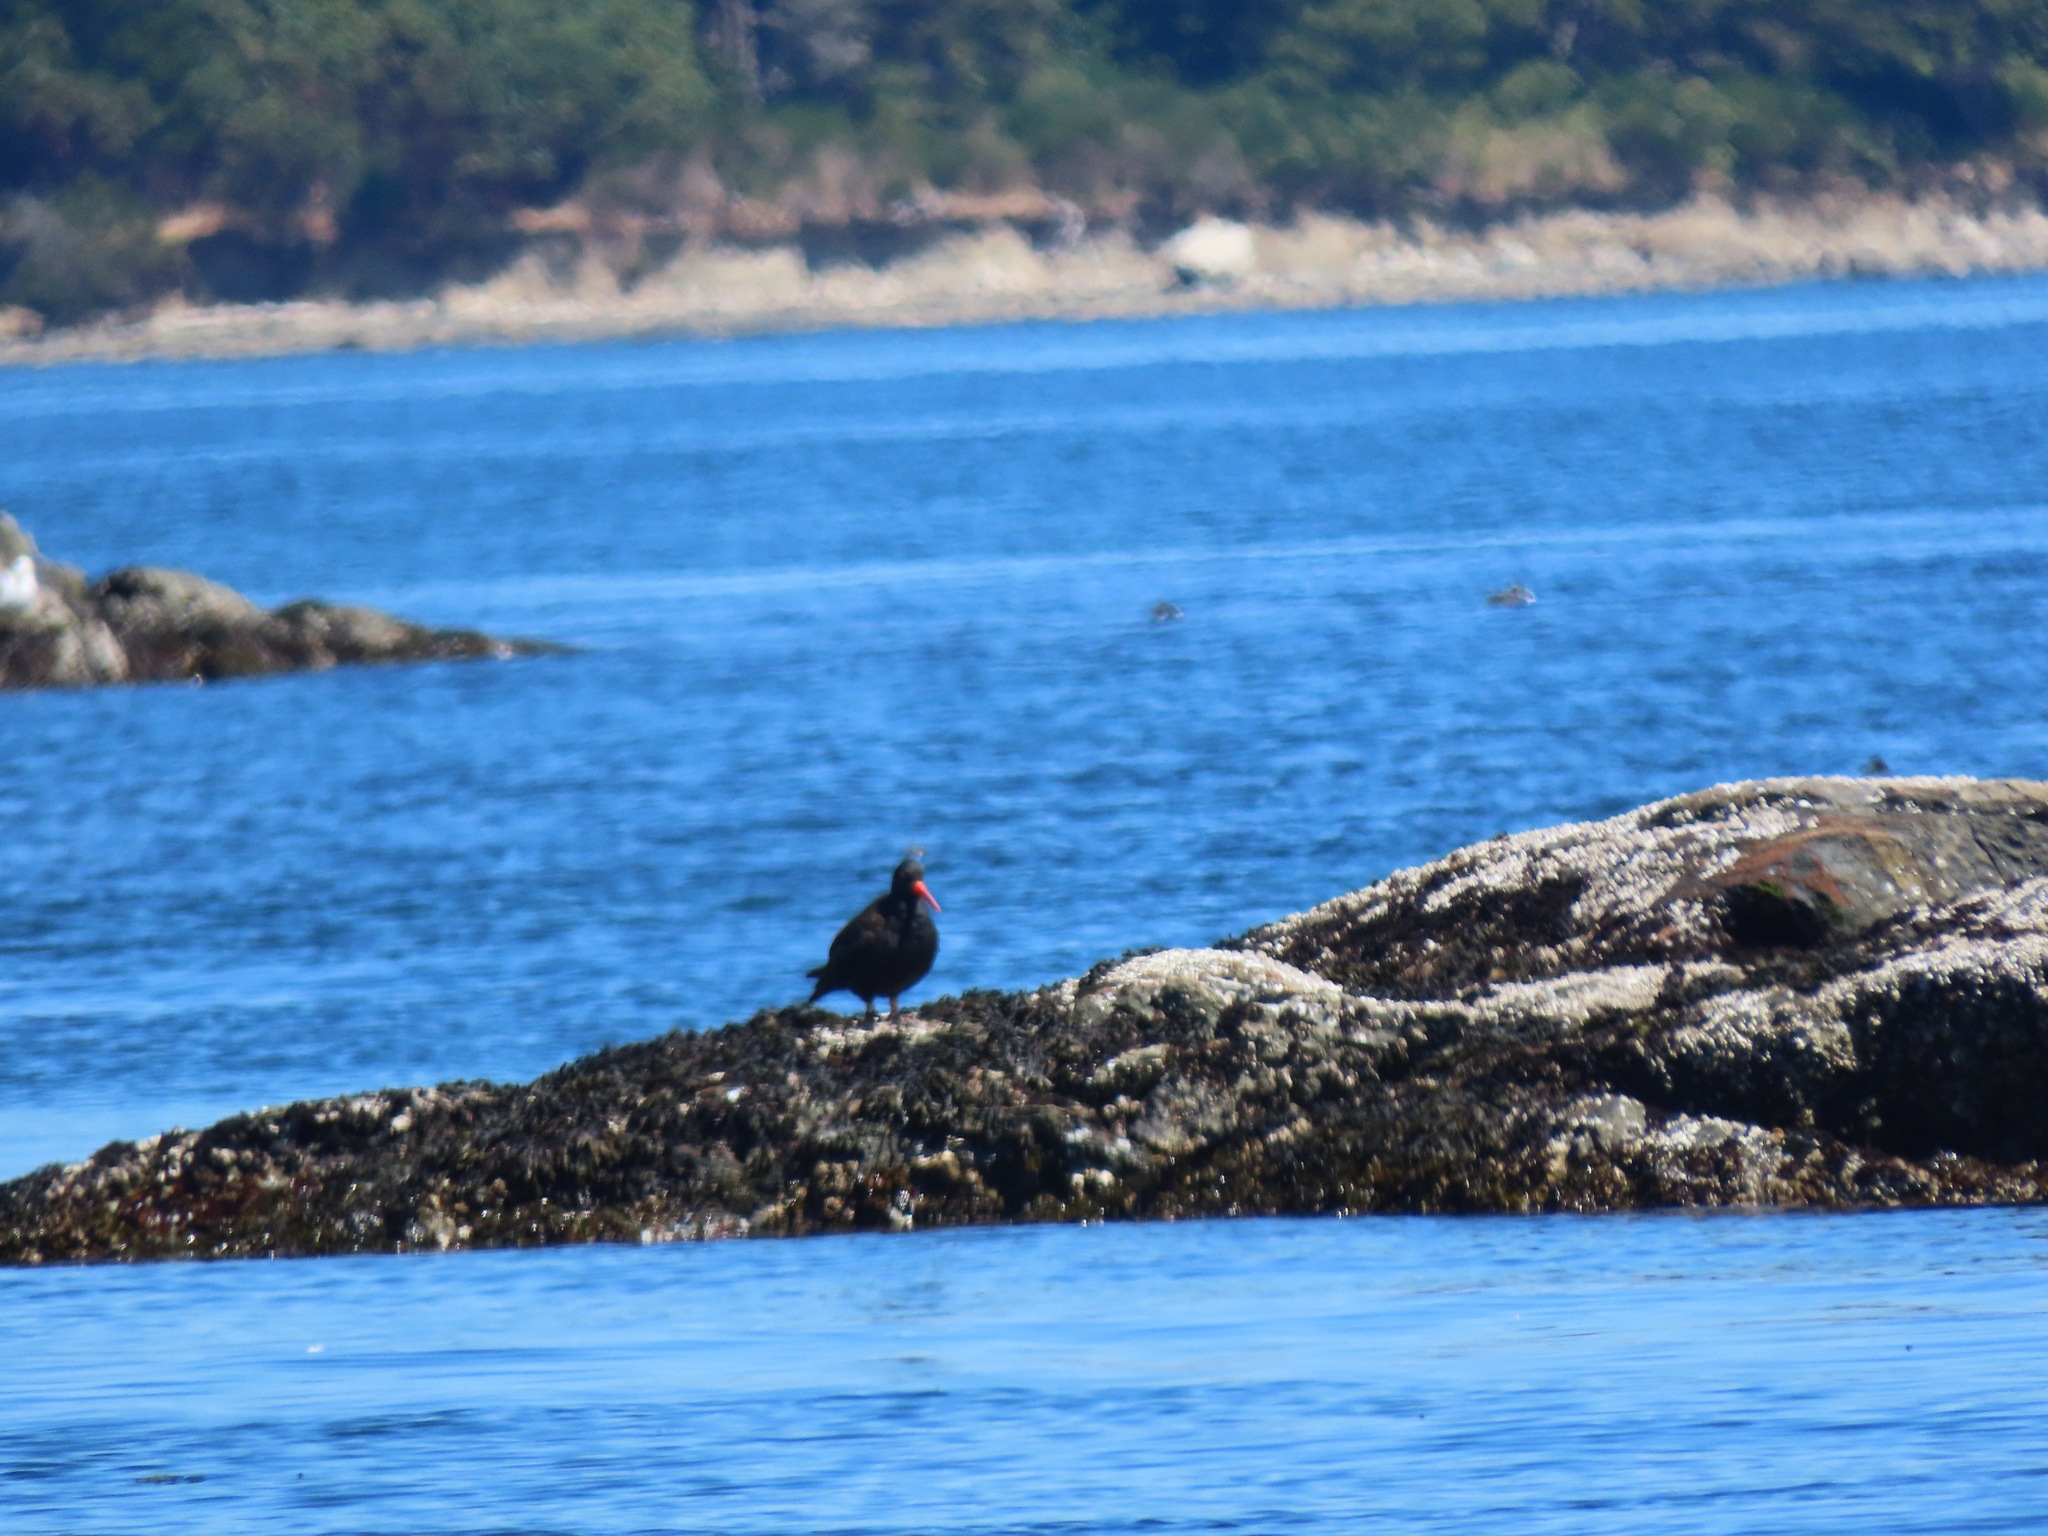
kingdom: Animalia
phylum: Chordata
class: Aves
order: Charadriiformes
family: Haematopodidae
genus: Haematopus
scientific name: Haematopus bachmani
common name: Black oystercatcher
